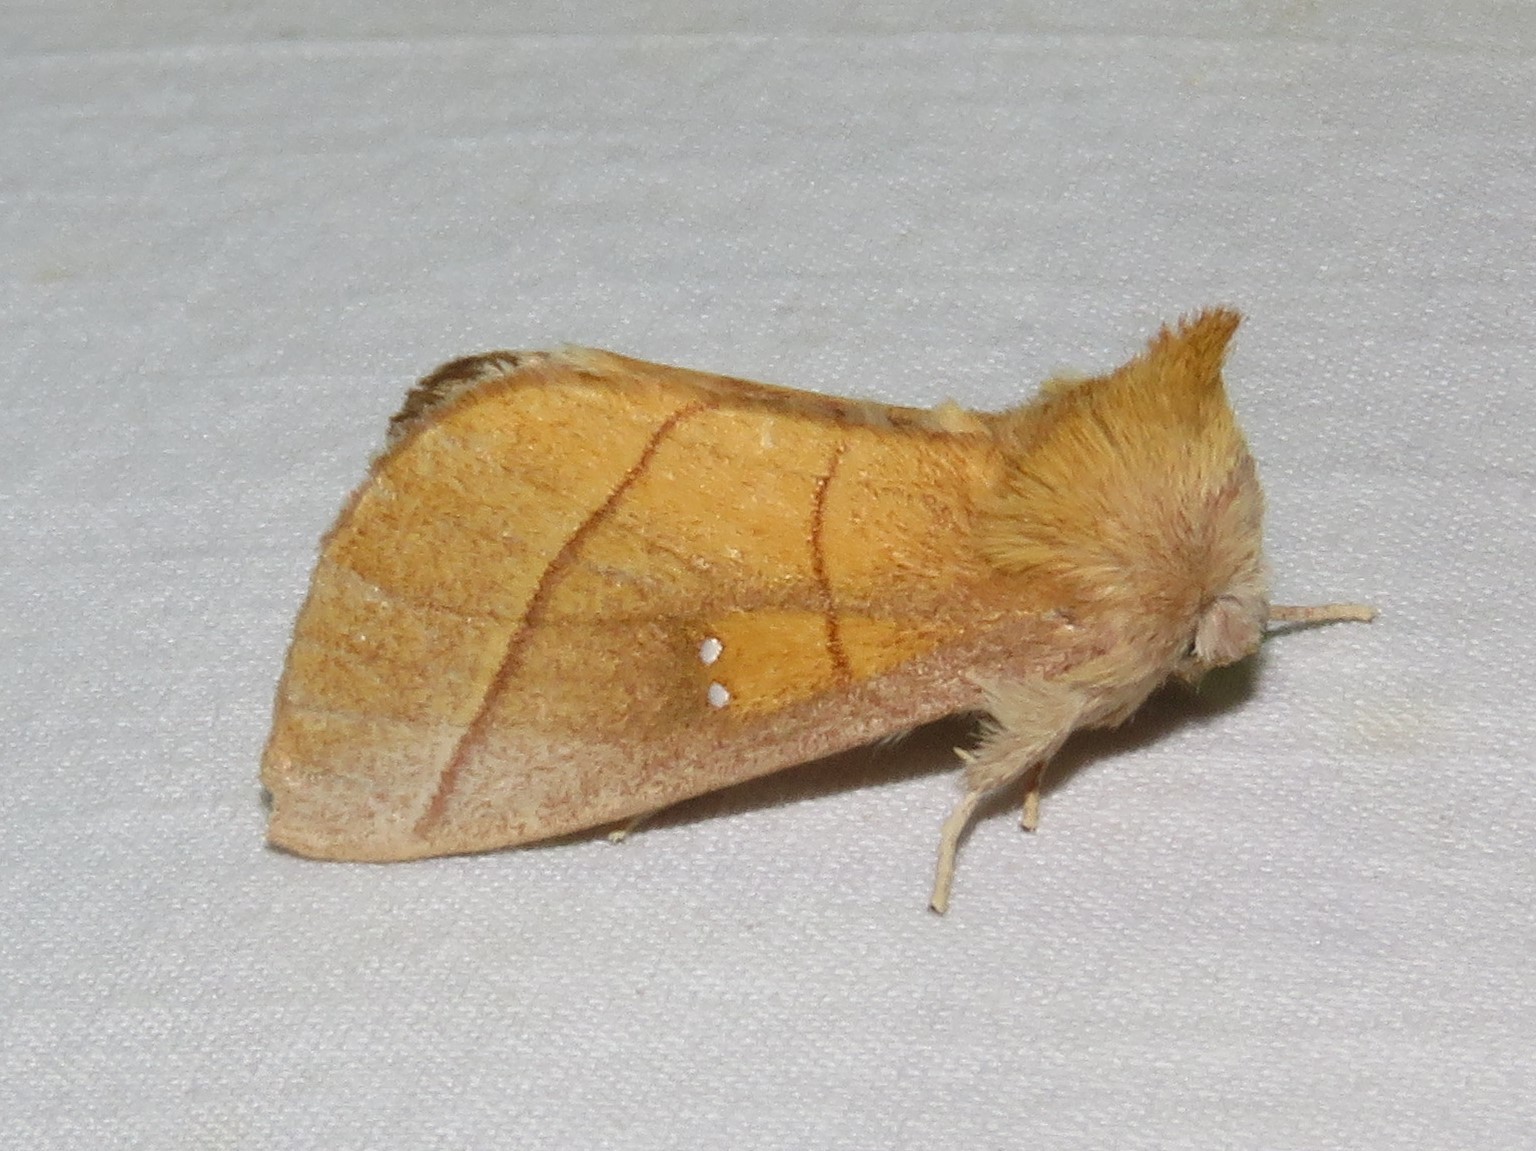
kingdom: Animalia
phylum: Arthropoda
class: Insecta
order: Lepidoptera
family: Notodontidae
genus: Nadata
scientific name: Nadata gibbosa
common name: White-dotted prominent
